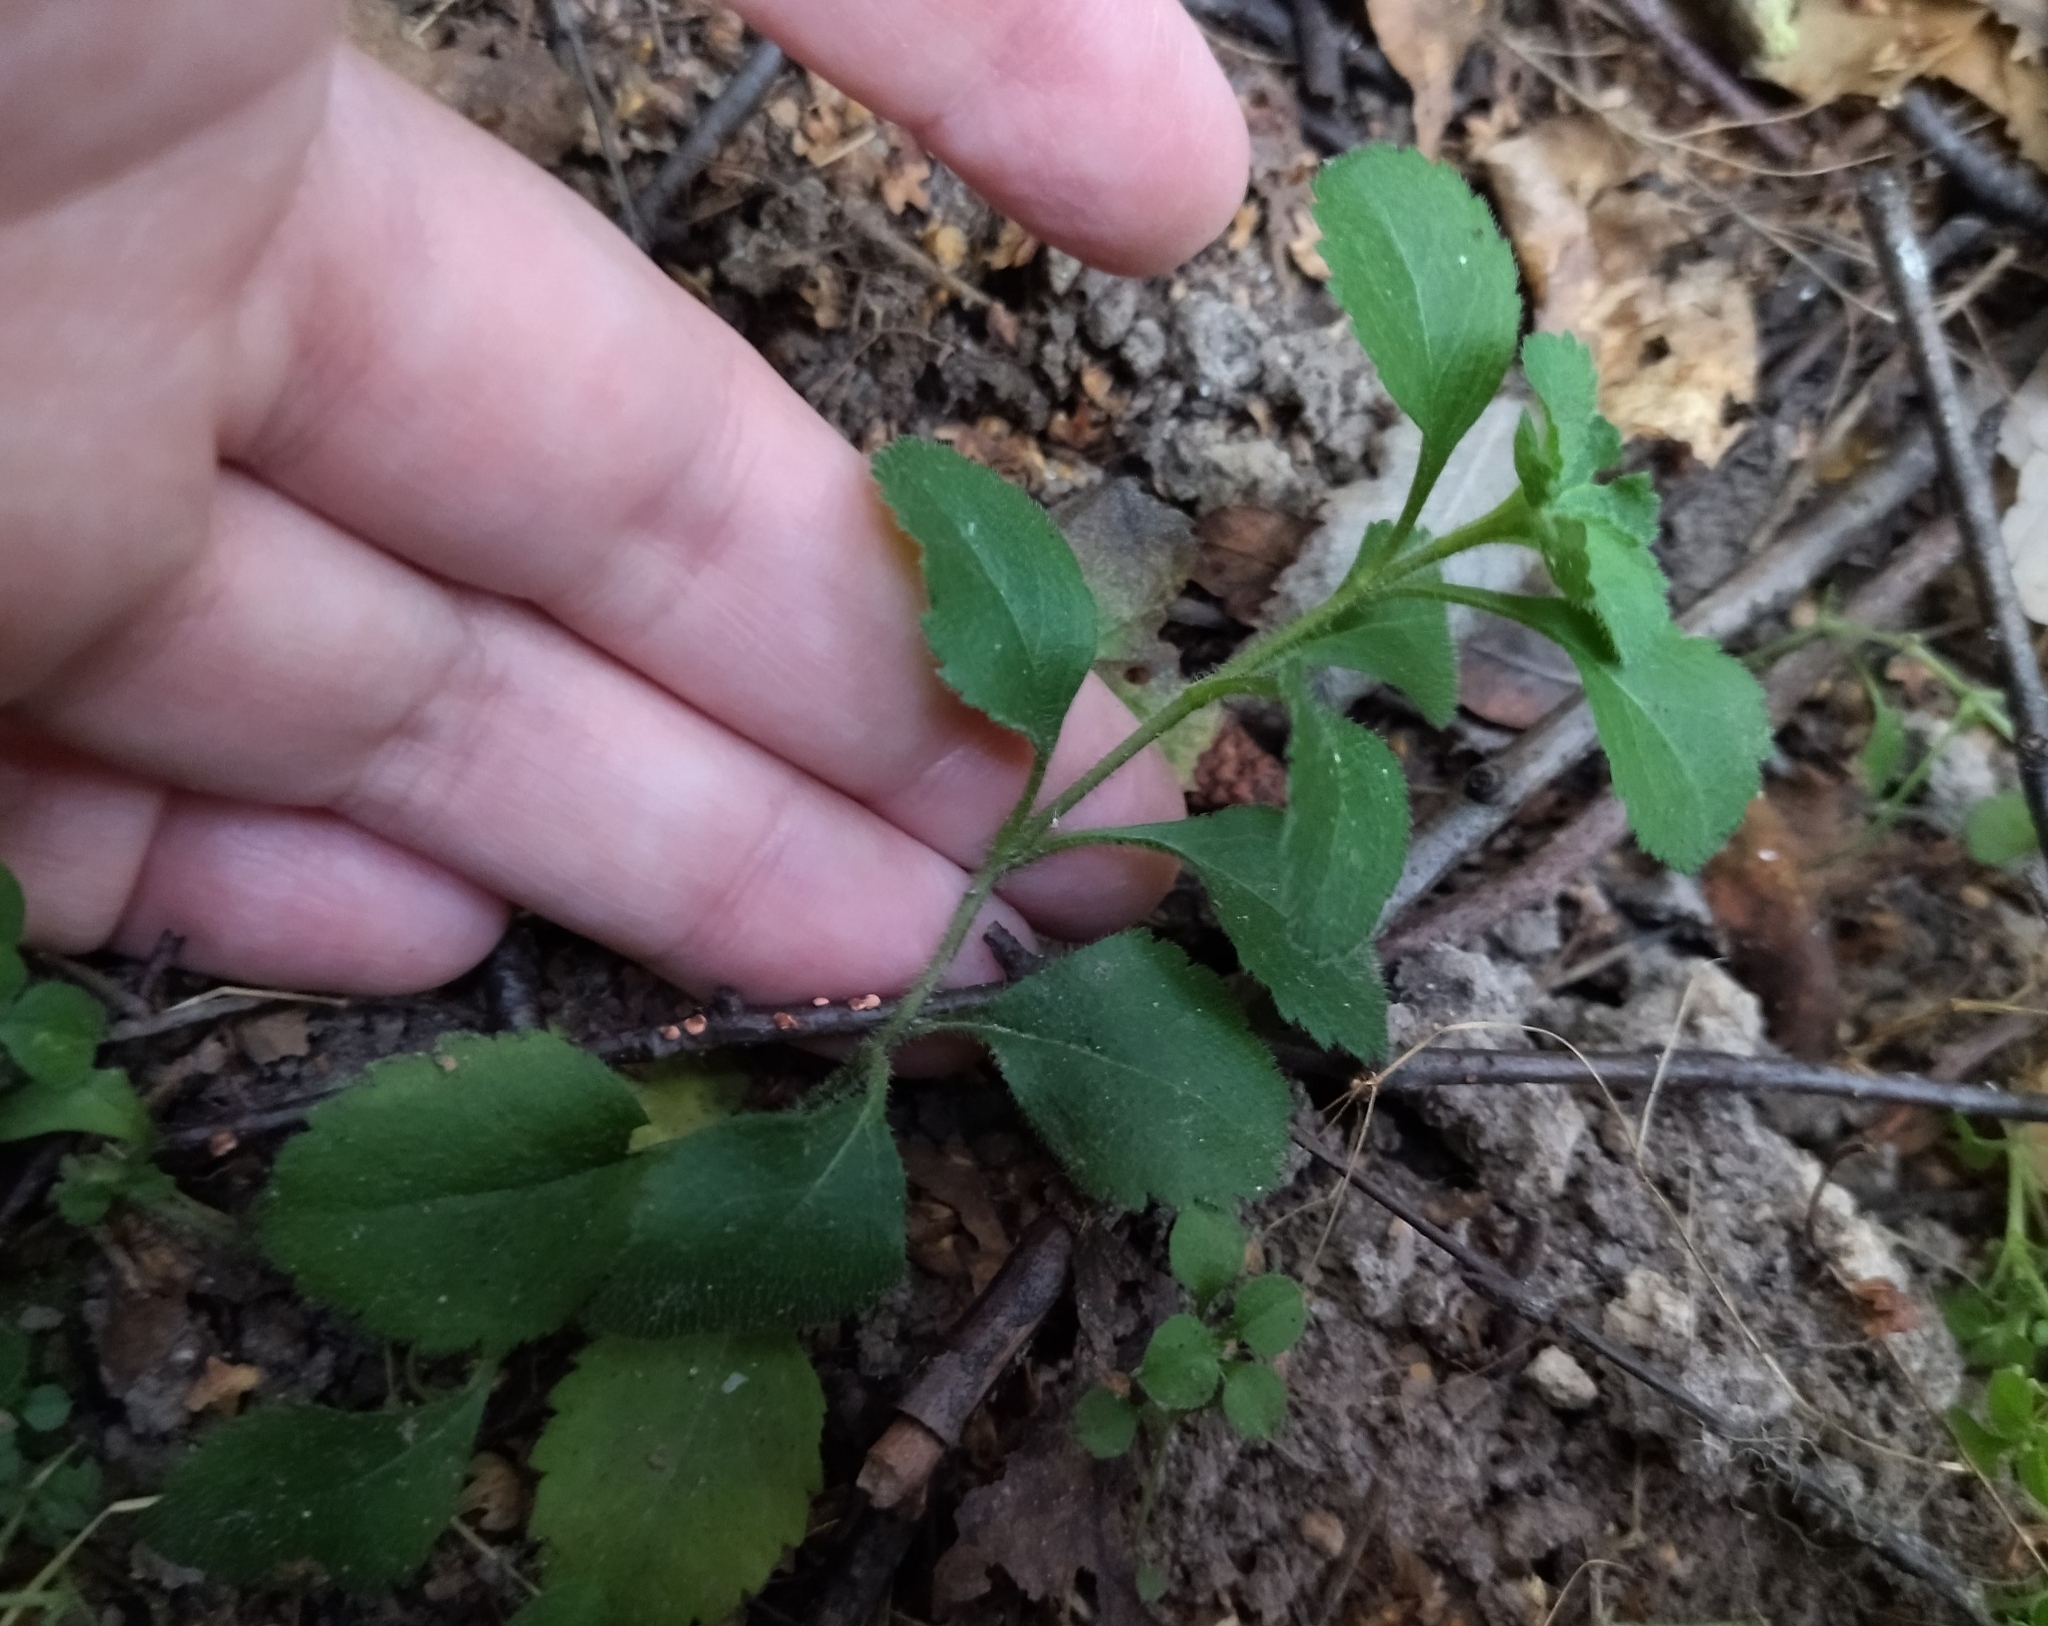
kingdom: Plantae
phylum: Tracheophyta
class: Magnoliopsida
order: Lamiales
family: Plantaginaceae
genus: Veronica
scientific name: Veronica officinalis
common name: Common speedwell
